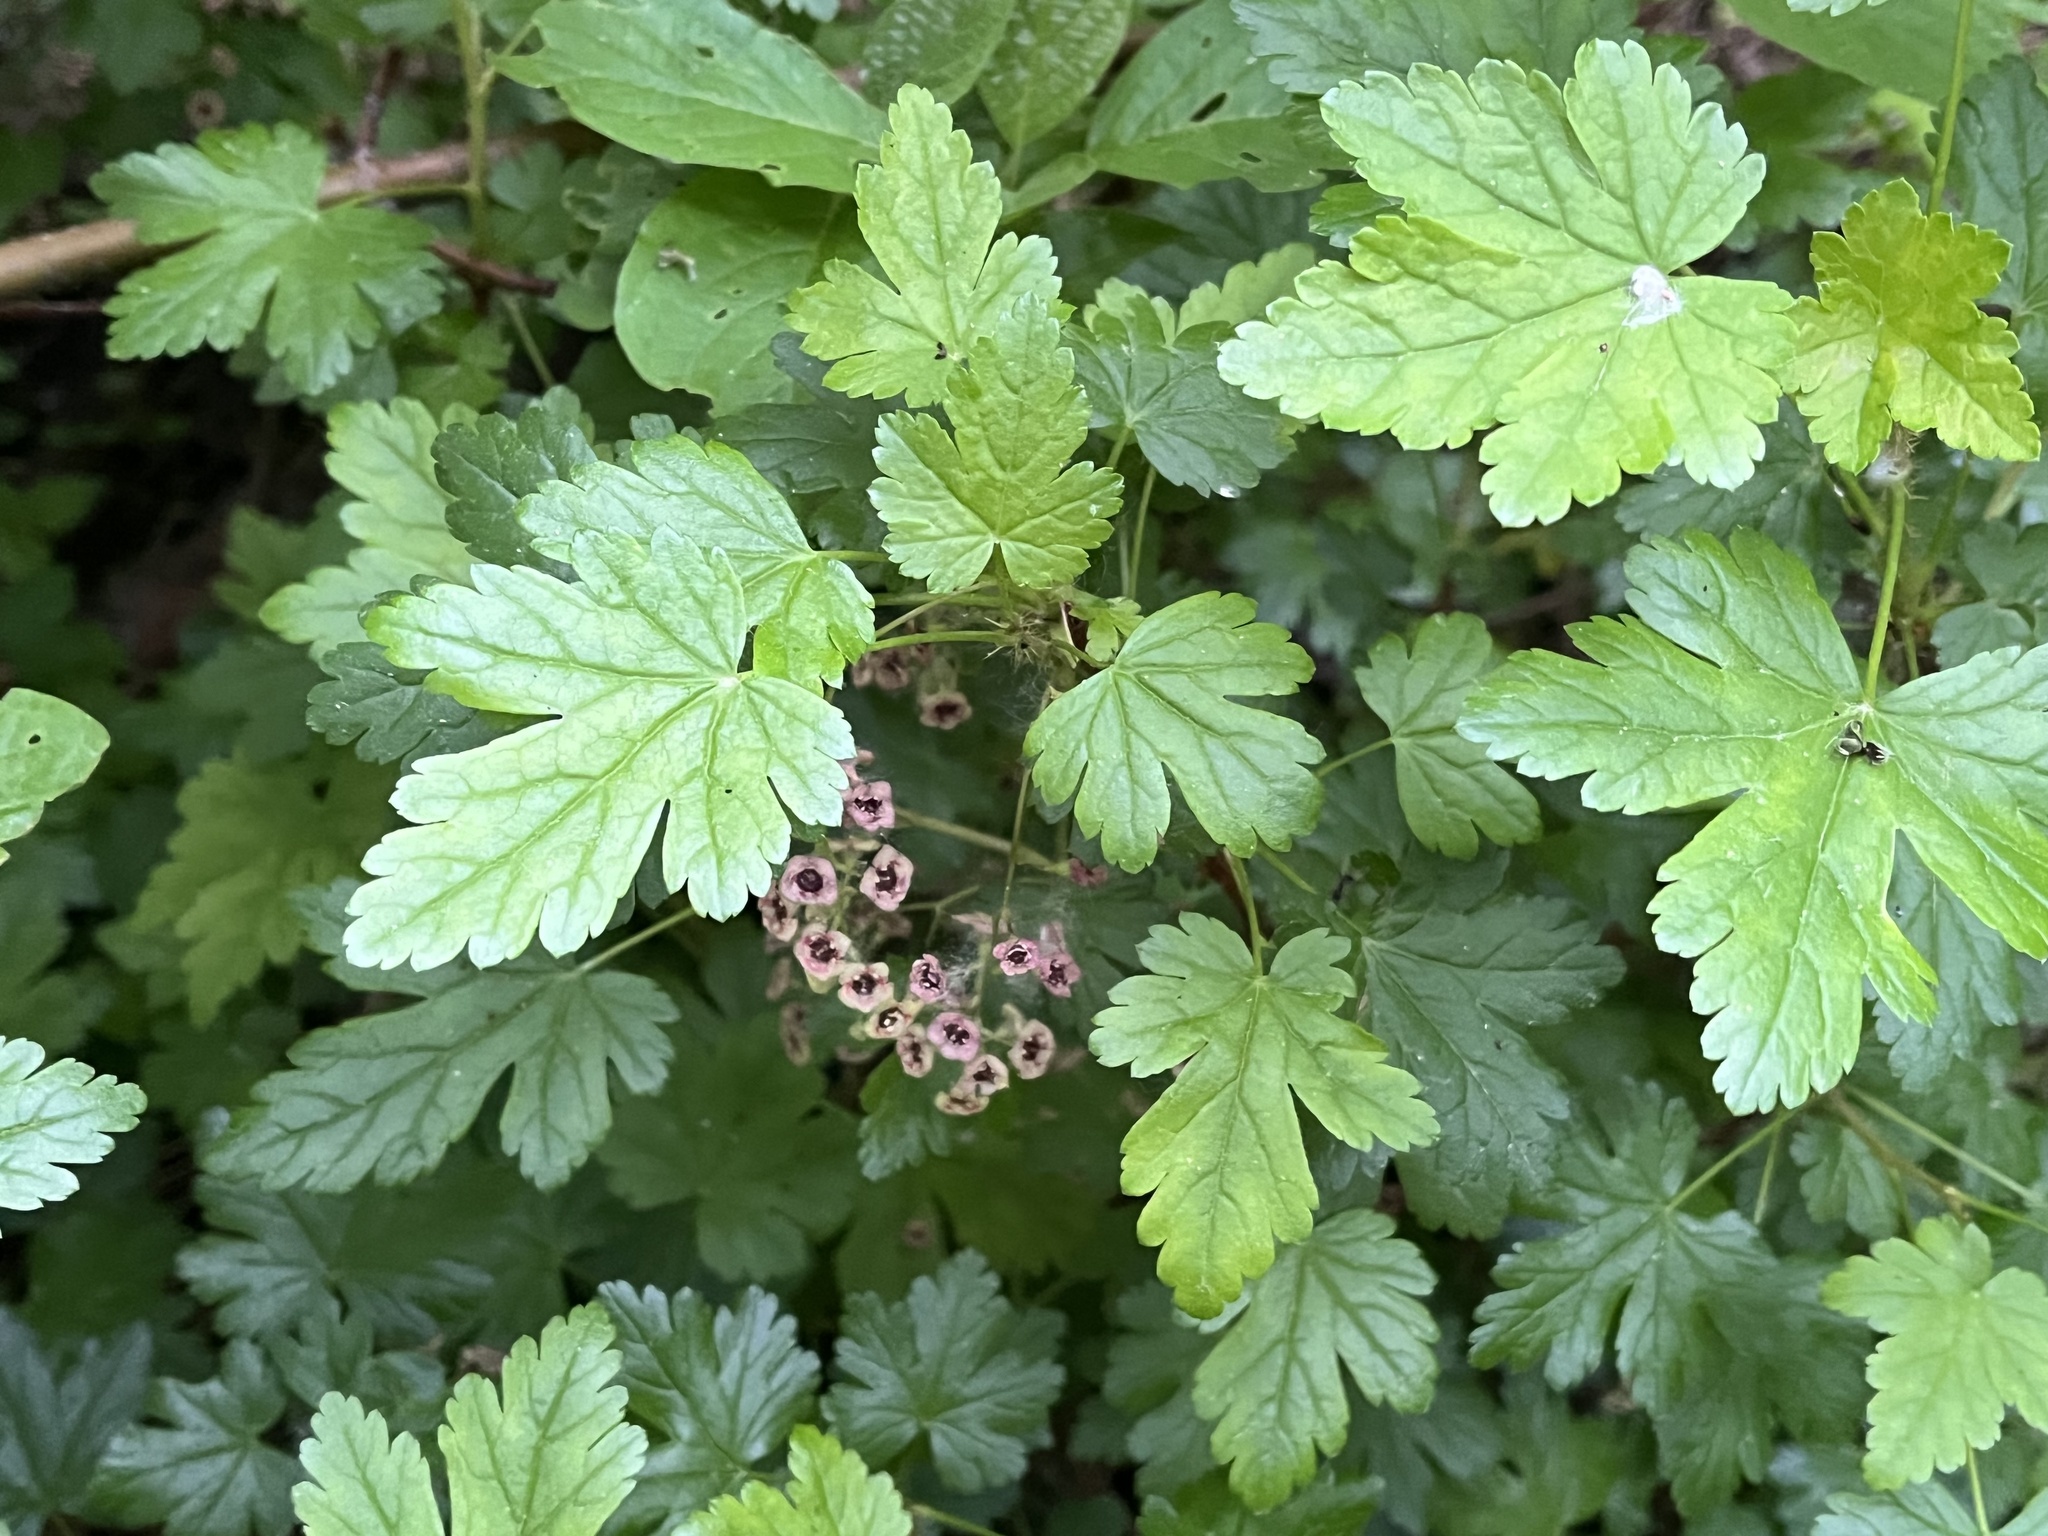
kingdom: Plantae
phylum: Tracheophyta
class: Magnoliopsida
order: Saxifragales
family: Grossulariaceae
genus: Ribes
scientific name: Ribes lacustre
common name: Black gooseberry
